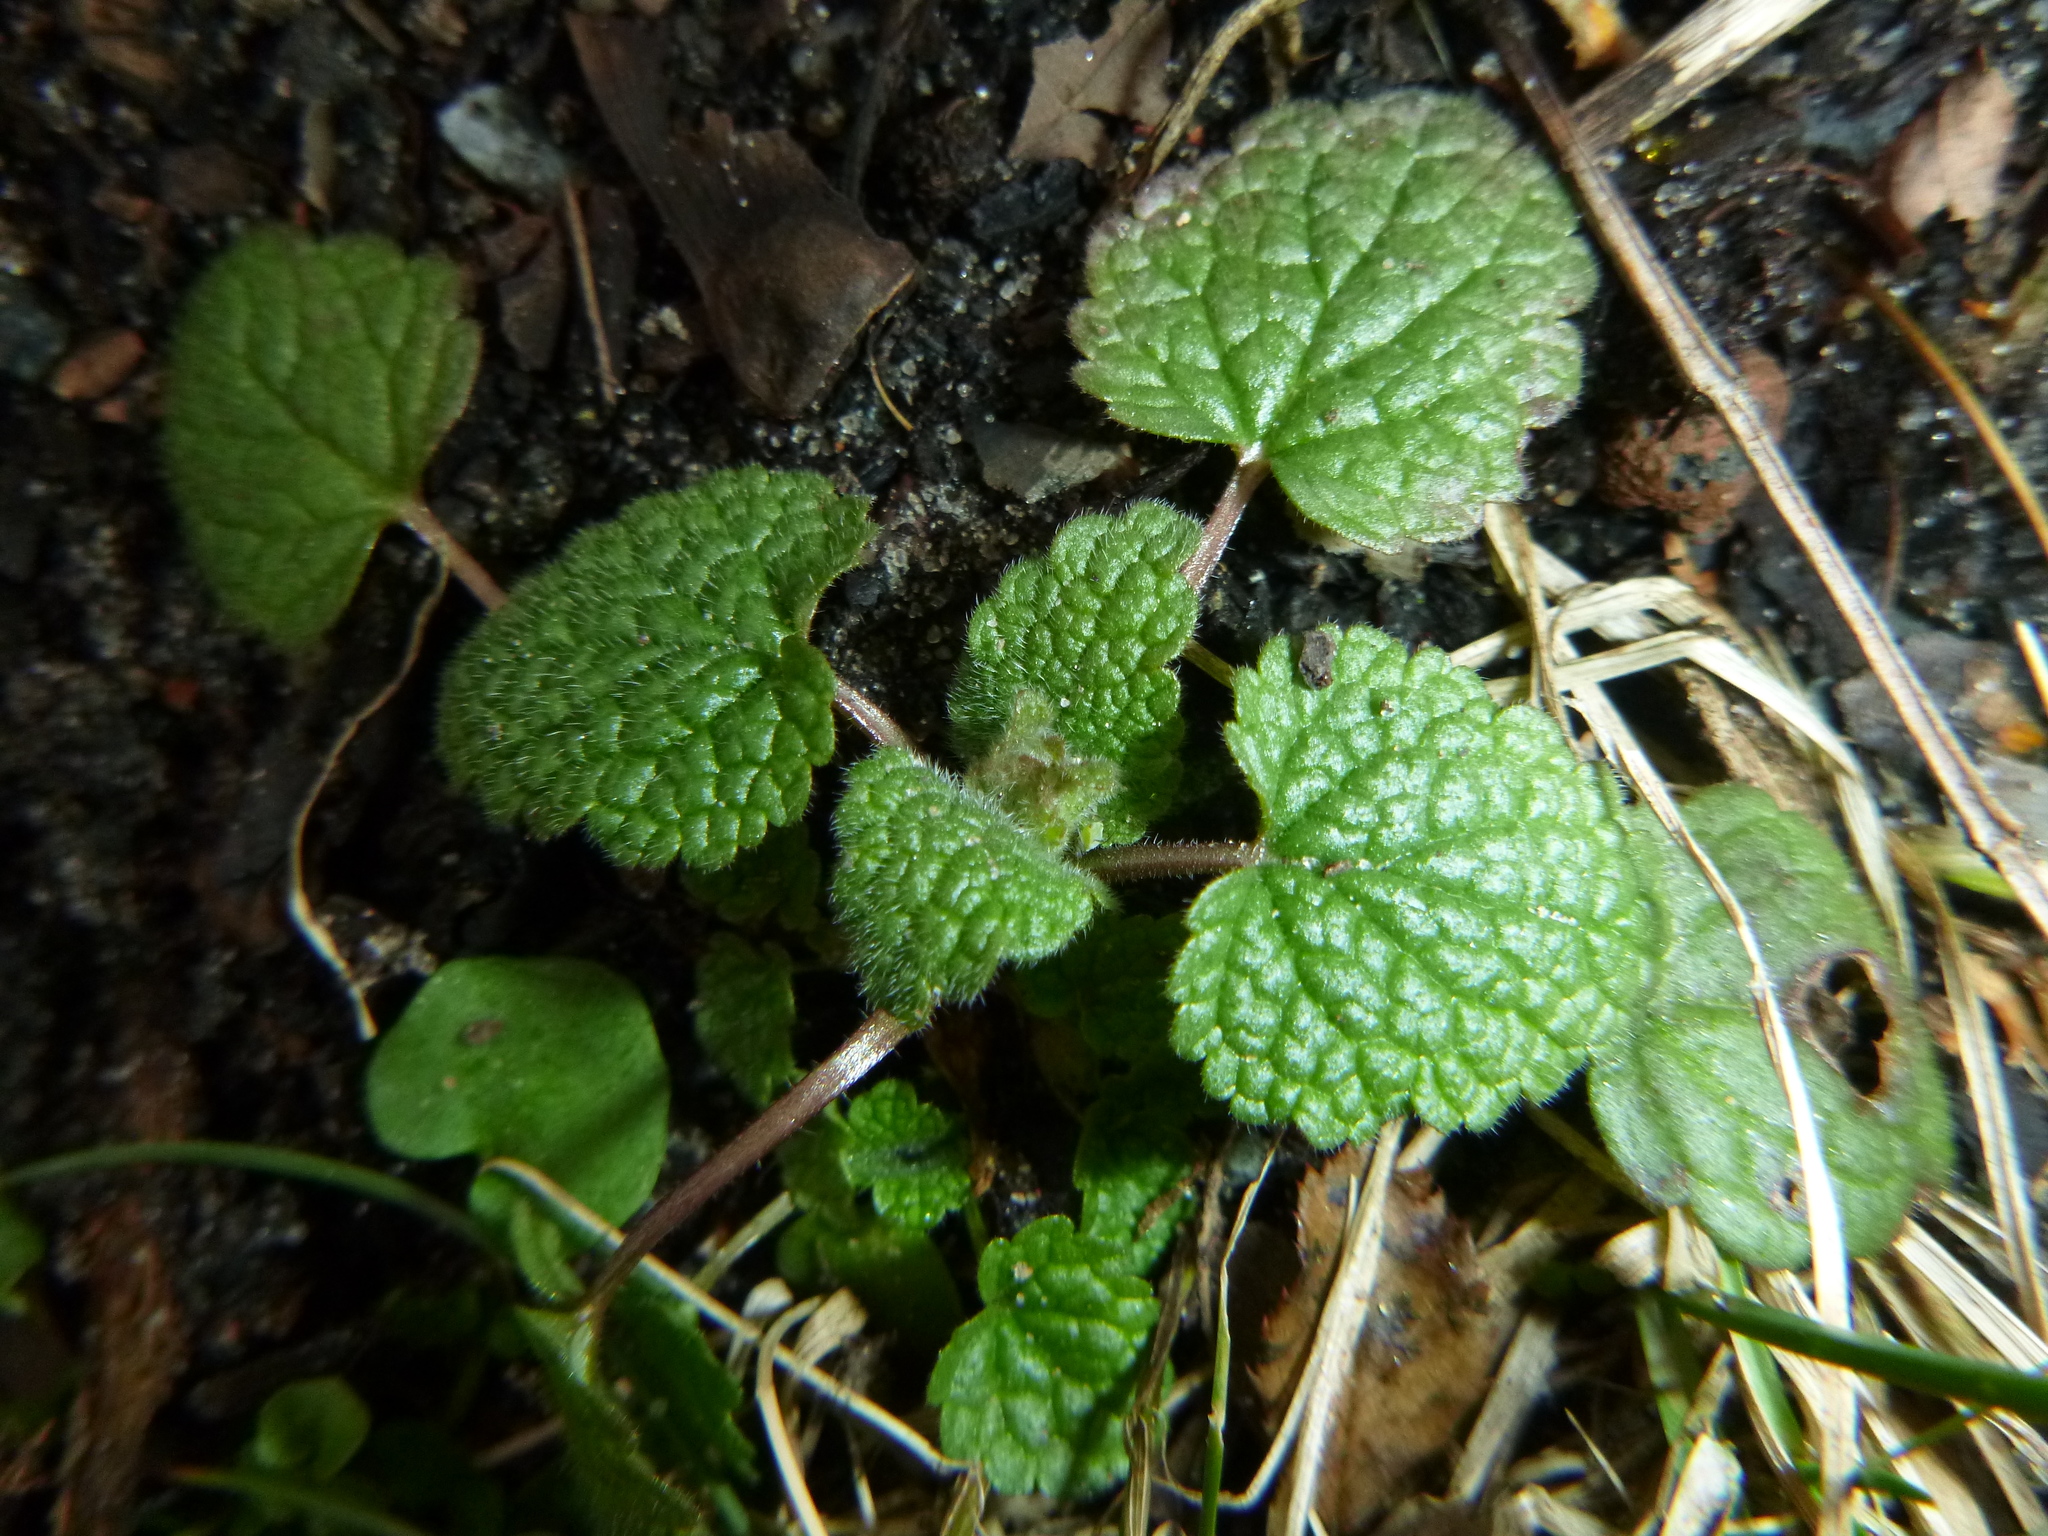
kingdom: Plantae
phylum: Tracheophyta
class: Magnoliopsida
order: Lamiales
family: Lamiaceae
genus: Lamium
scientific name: Lamium purpureum
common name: Red dead-nettle
